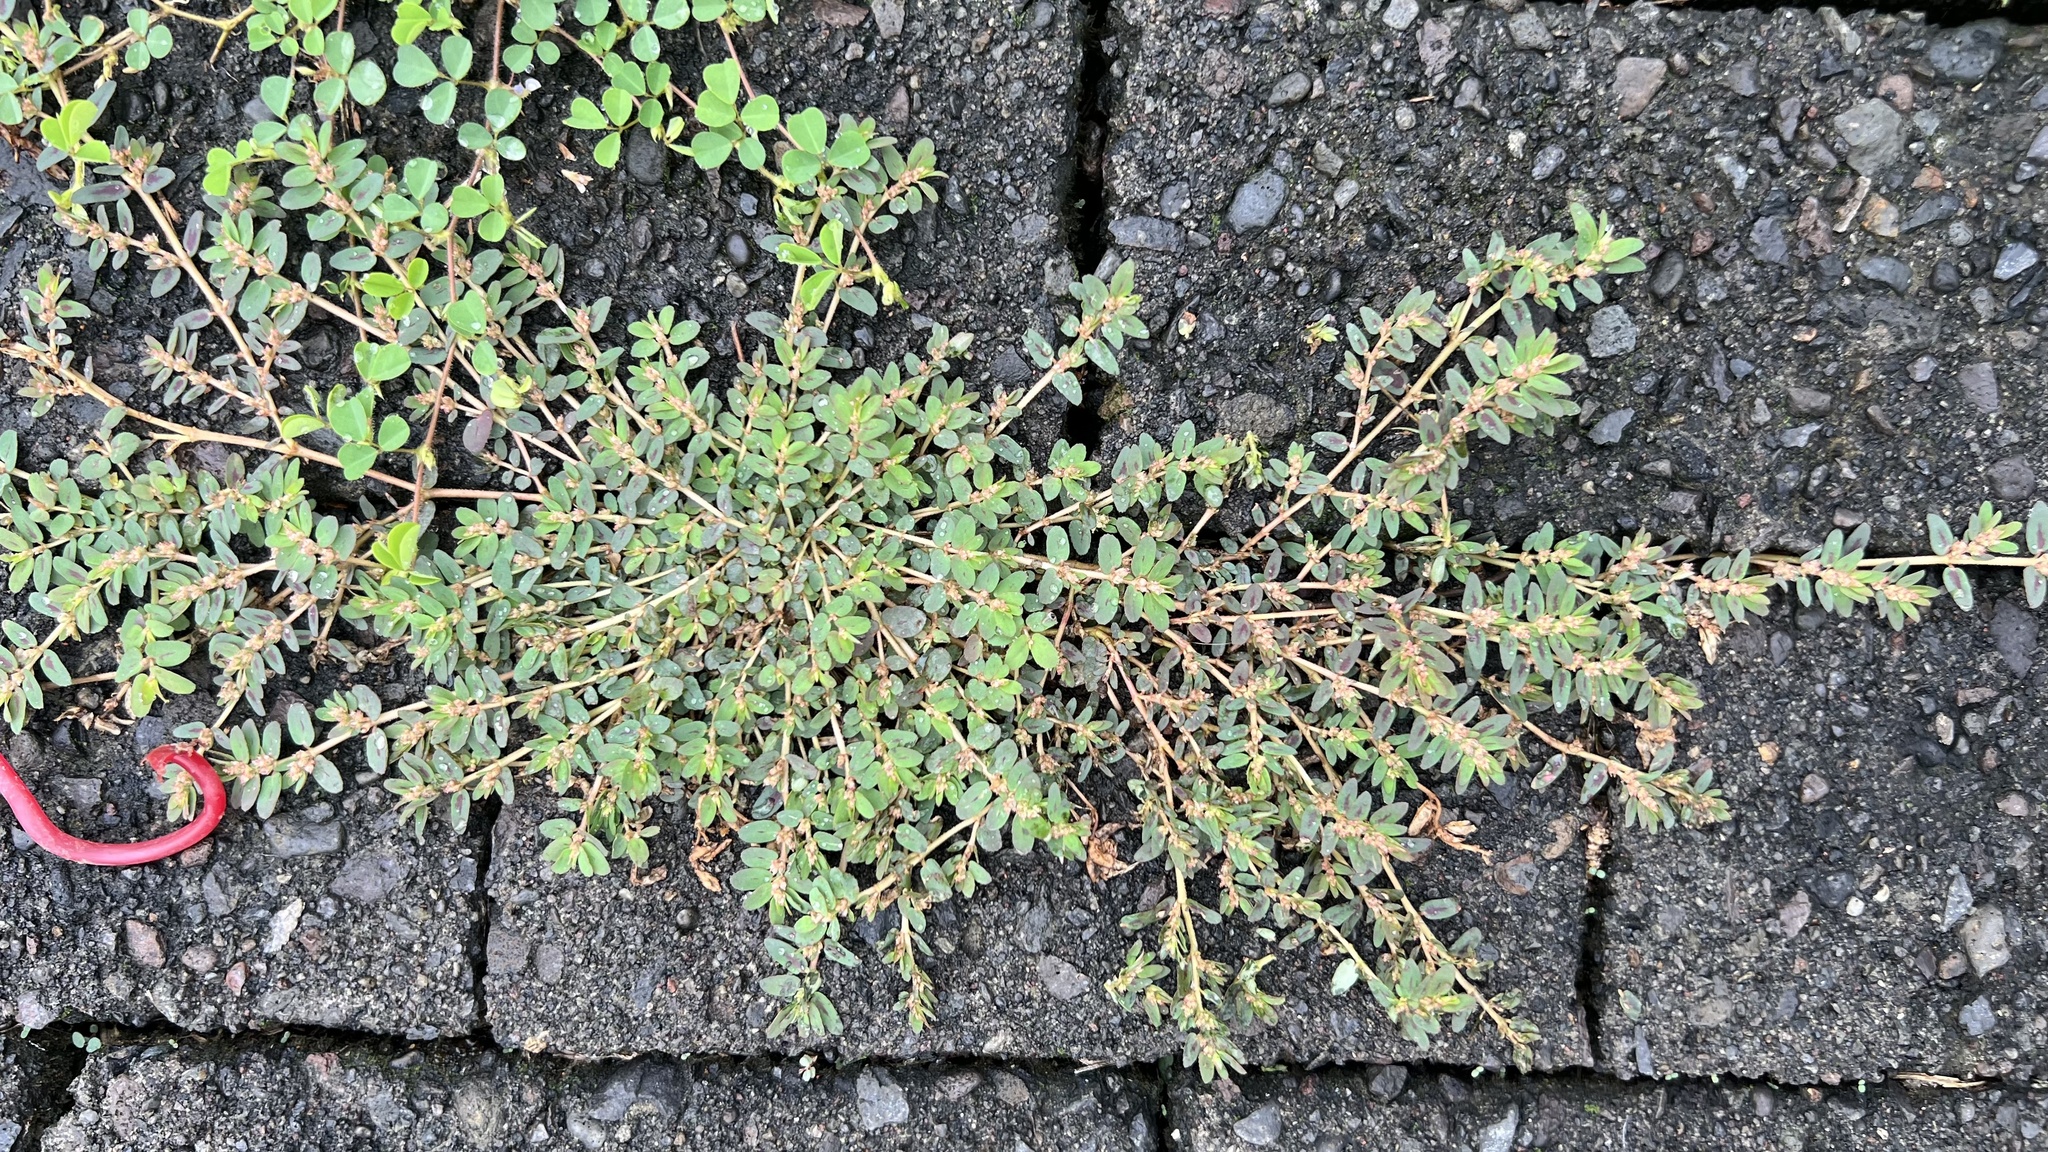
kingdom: Plantae
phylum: Tracheophyta
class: Magnoliopsida
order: Malpighiales
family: Euphorbiaceae
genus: Euphorbia
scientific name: Euphorbia thymifolia
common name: Gulf sandmat
